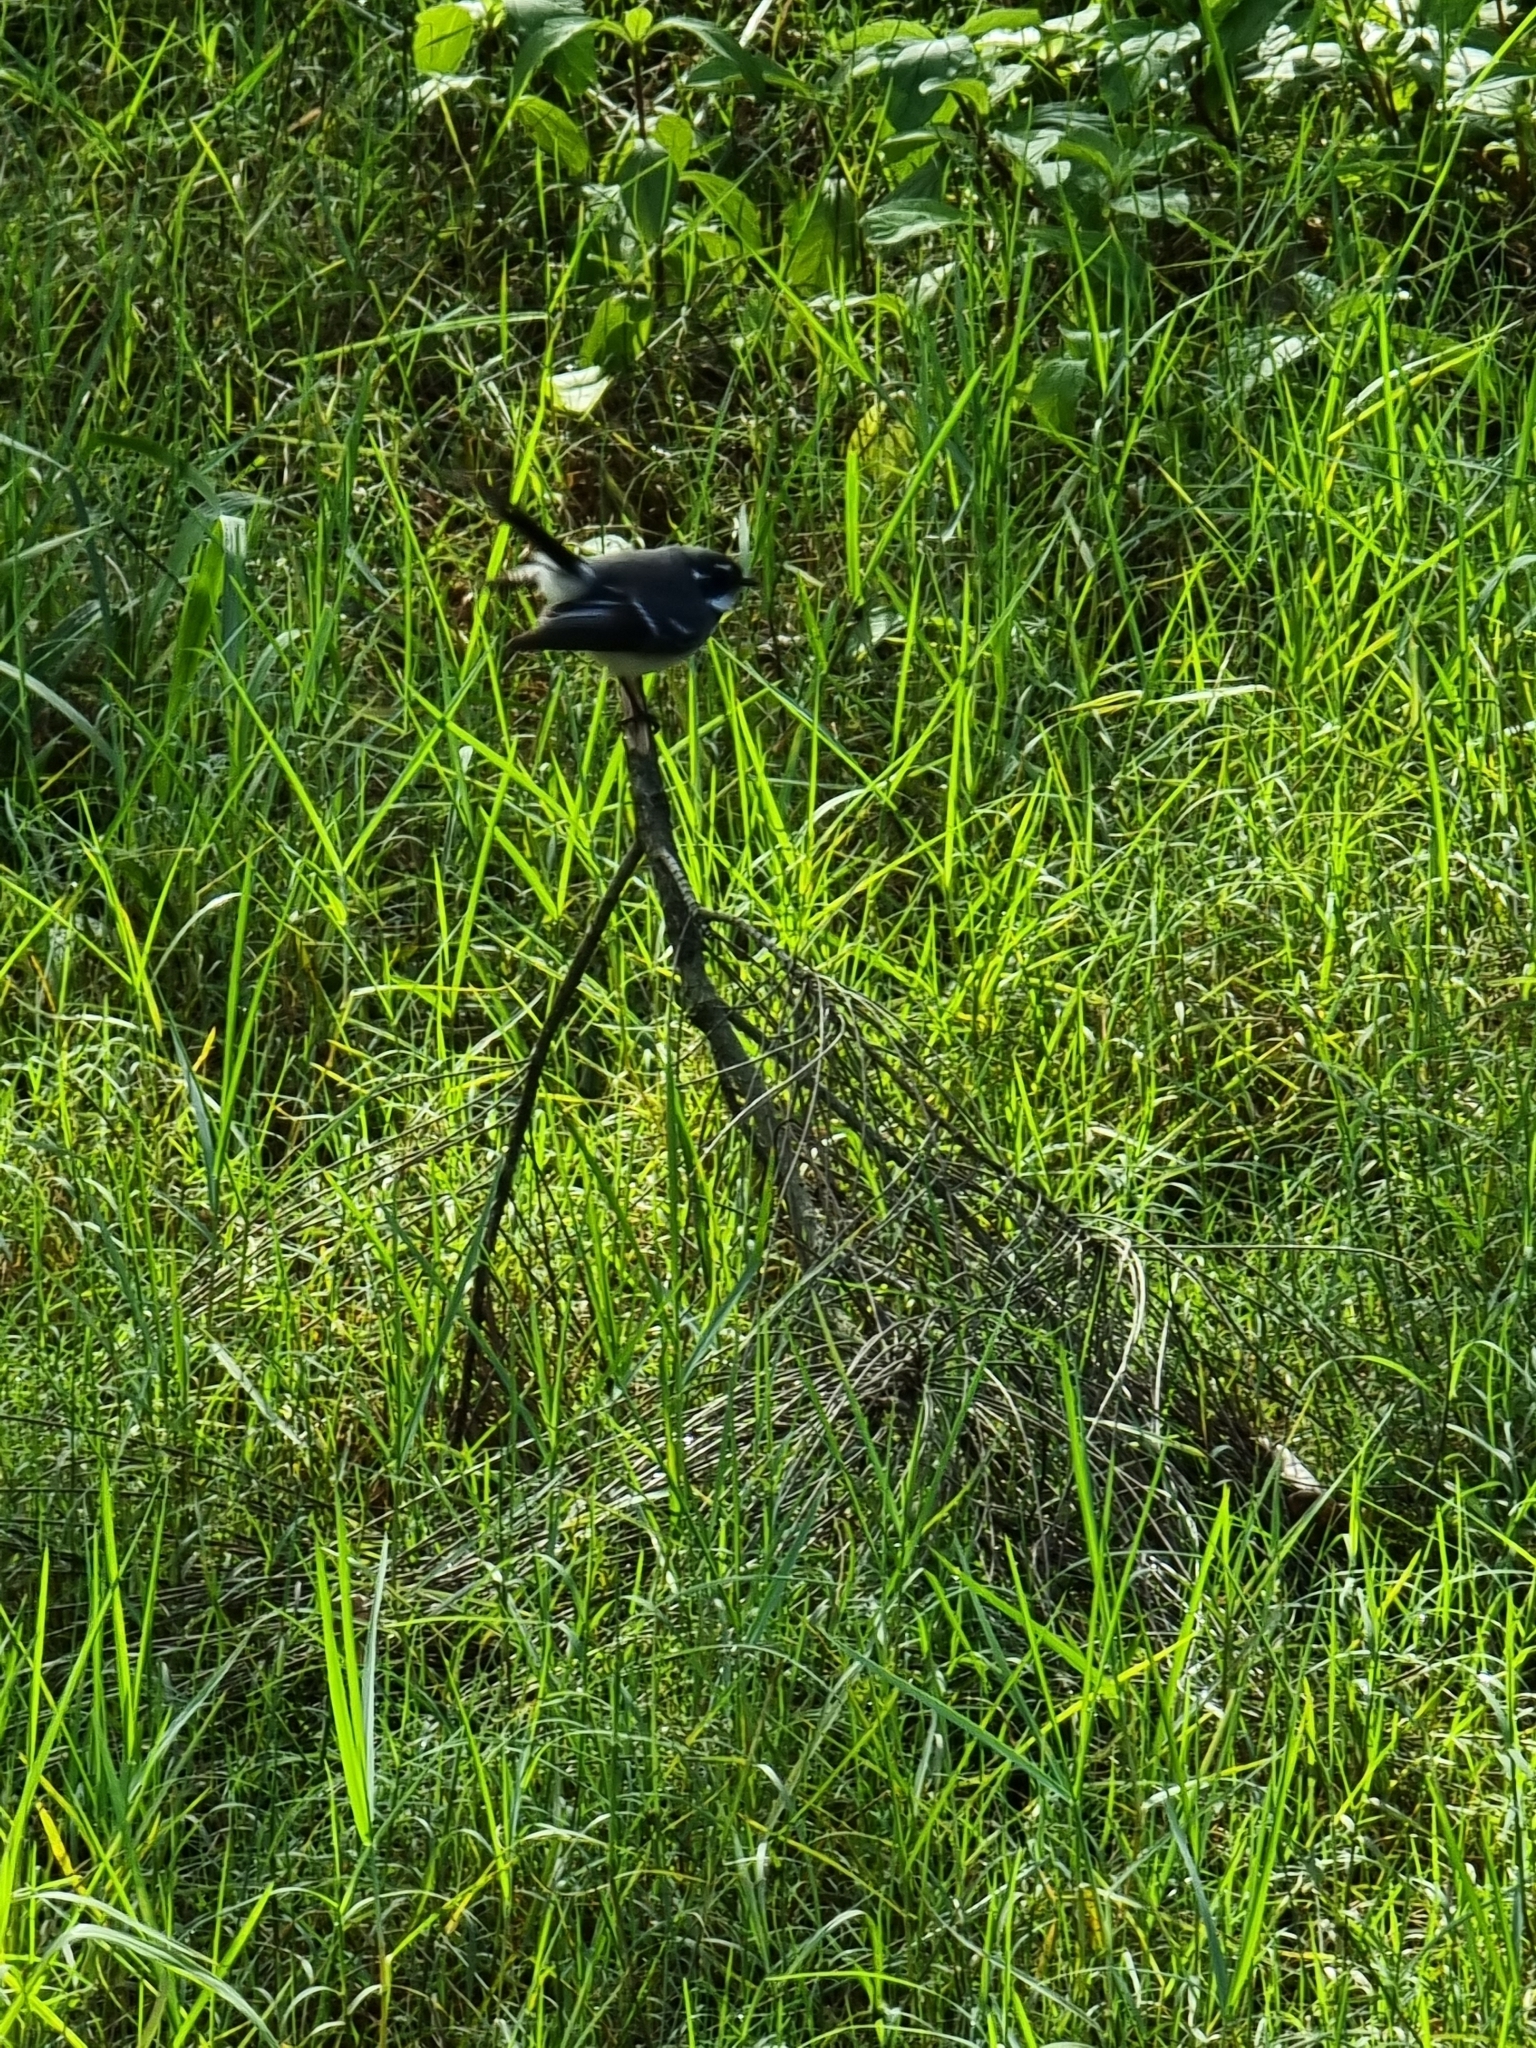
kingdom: Animalia
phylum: Chordata
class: Aves
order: Passeriformes
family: Rhipiduridae
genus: Rhipidura
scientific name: Rhipidura albiscapa
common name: Grey fantail
